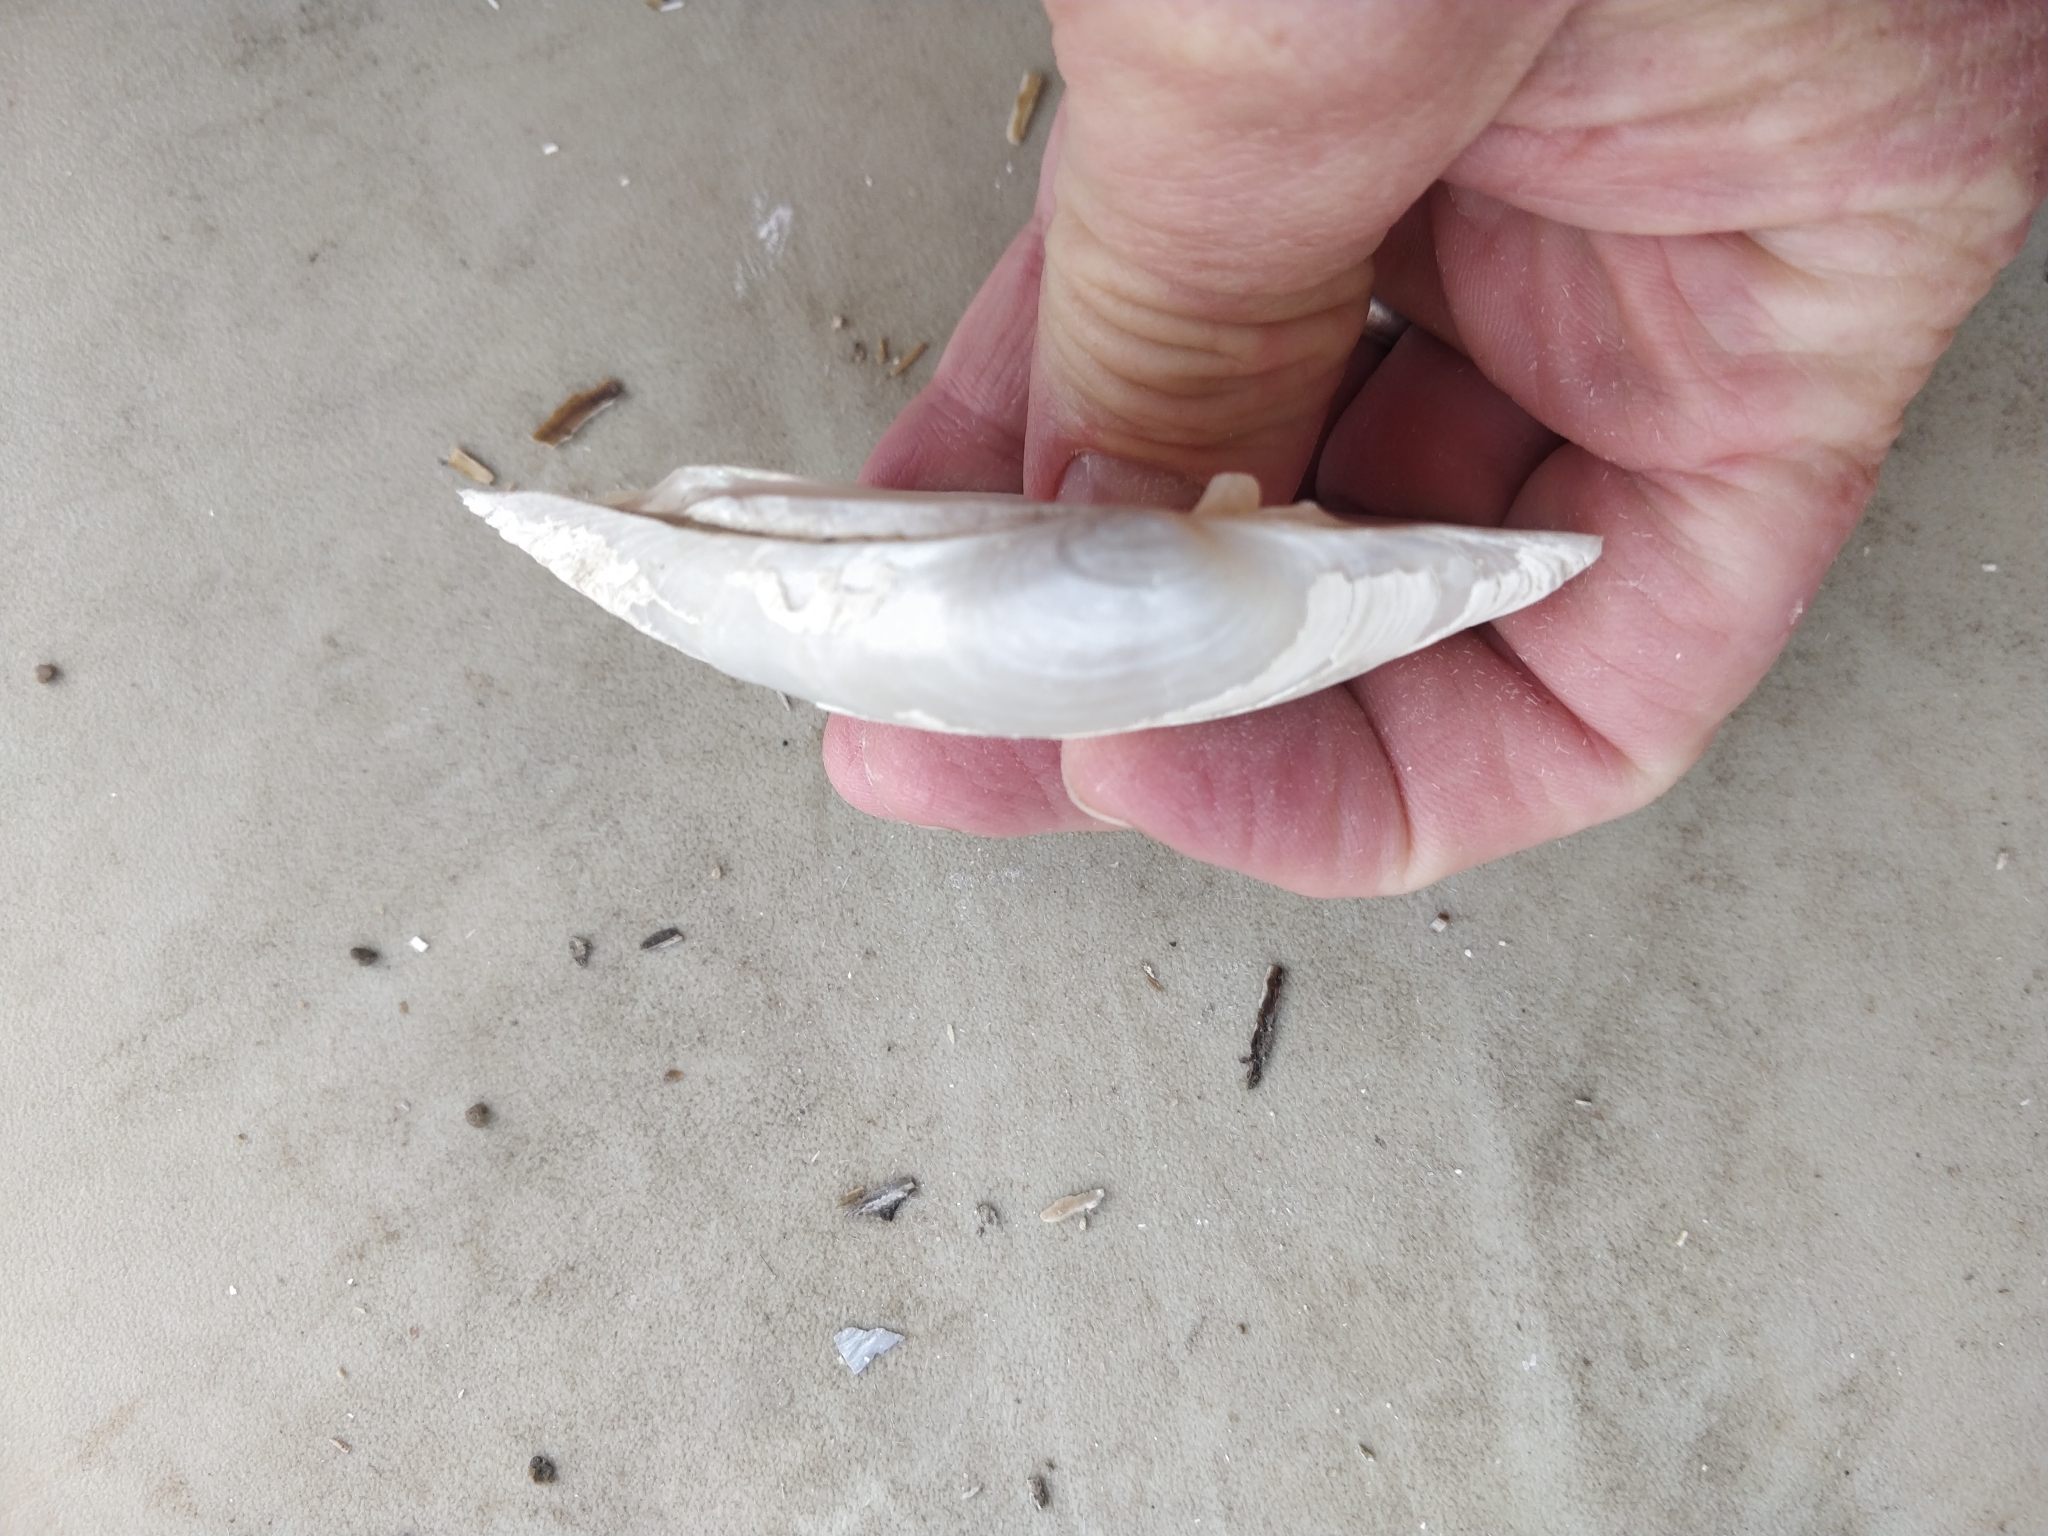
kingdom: Animalia
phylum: Mollusca
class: Bivalvia
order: Unionida
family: Unionidae
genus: Lampsilis
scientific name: Lampsilis cardium
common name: Plain pocketbook
